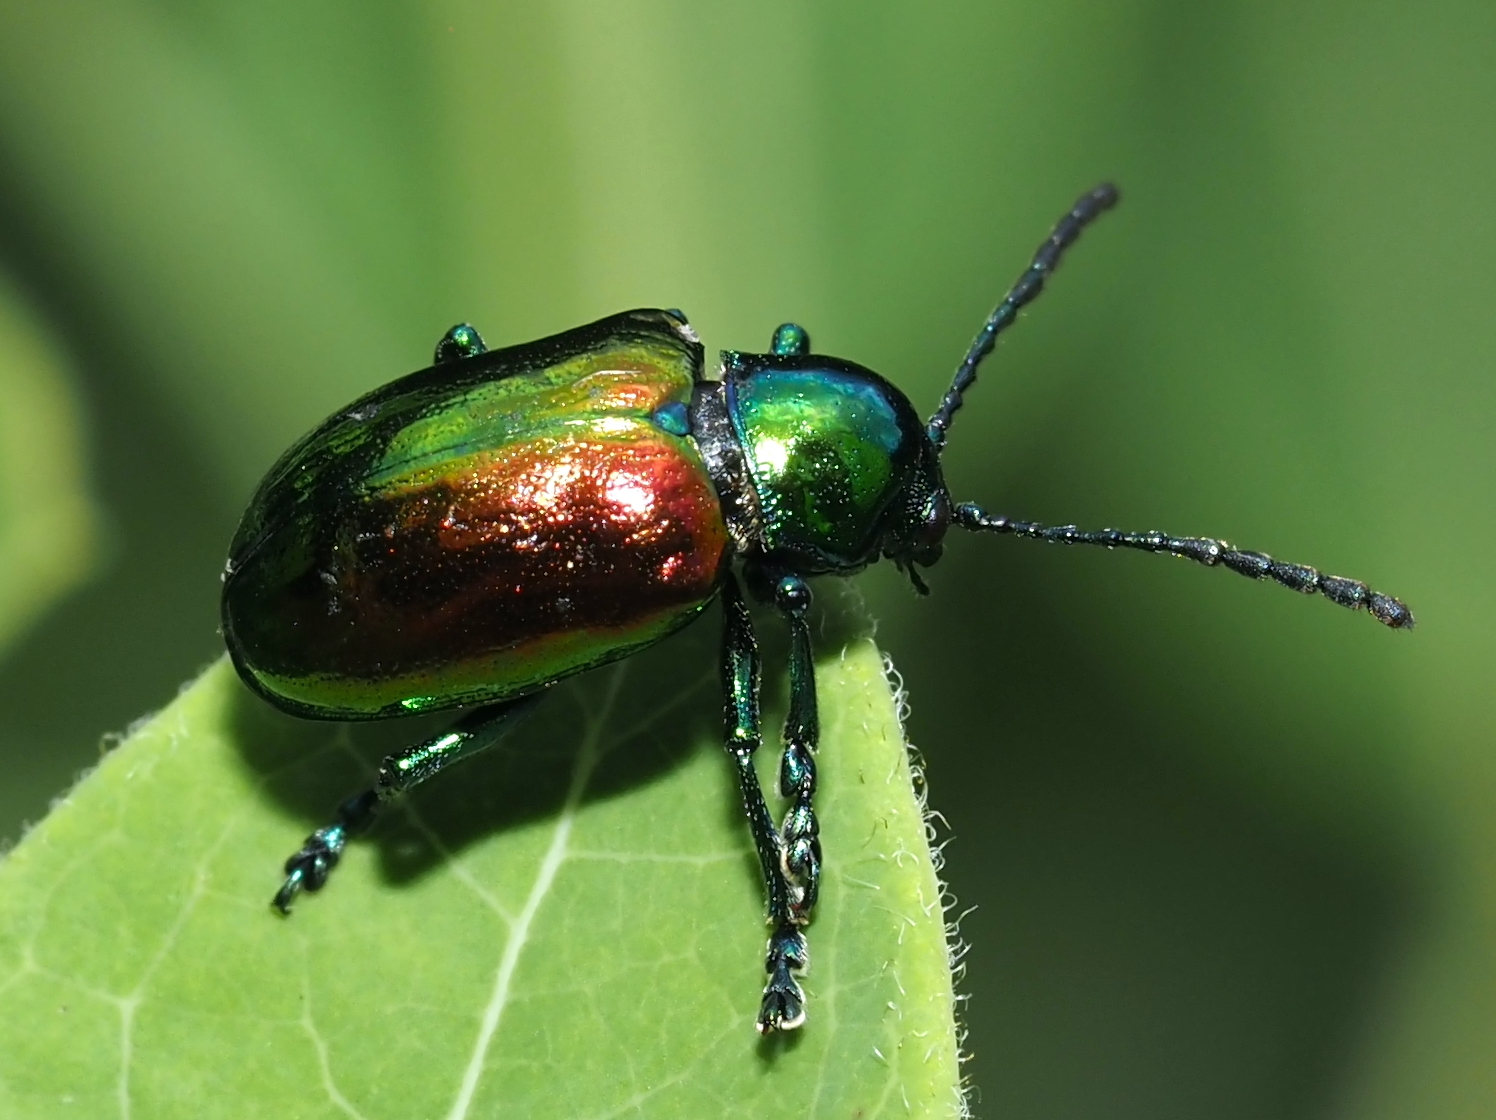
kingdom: Animalia
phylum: Arthropoda
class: Insecta
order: Coleoptera
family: Chrysomelidae
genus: Chrysochus
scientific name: Chrysochus auratus
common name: Dogbane leaf beetle
